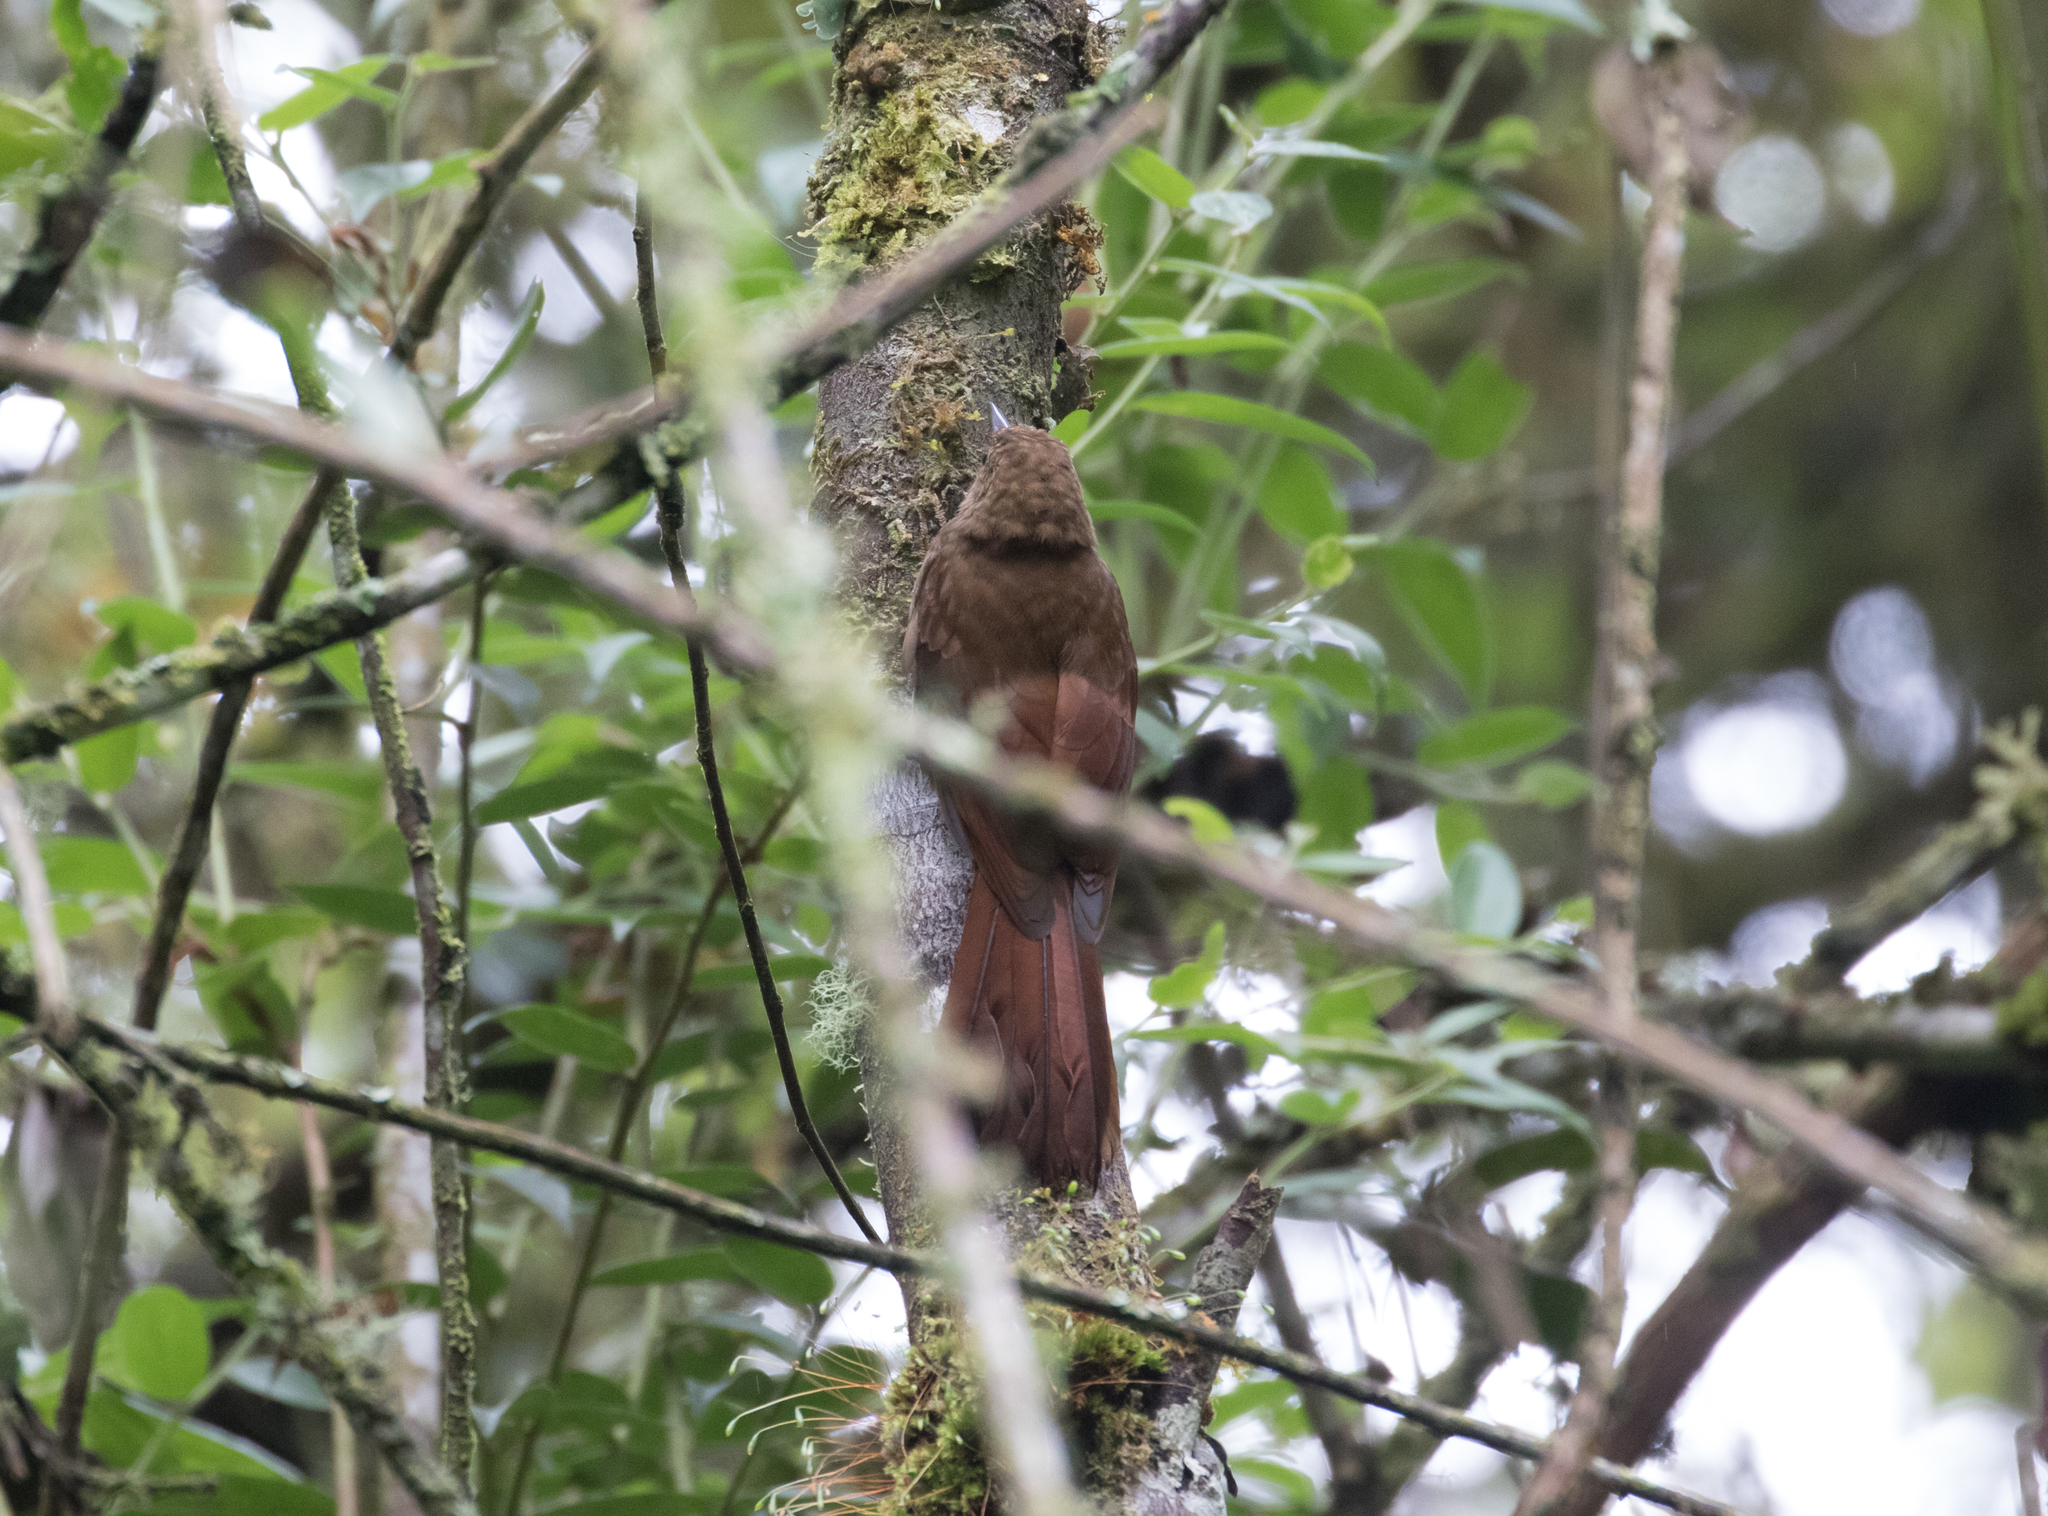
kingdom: Animalia
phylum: Chordata
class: Aves
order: Passeriformes
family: Furnariidae
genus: Dendrocincla
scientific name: Dendrocincla tyrannina
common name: Tyrannine woodcreeper
